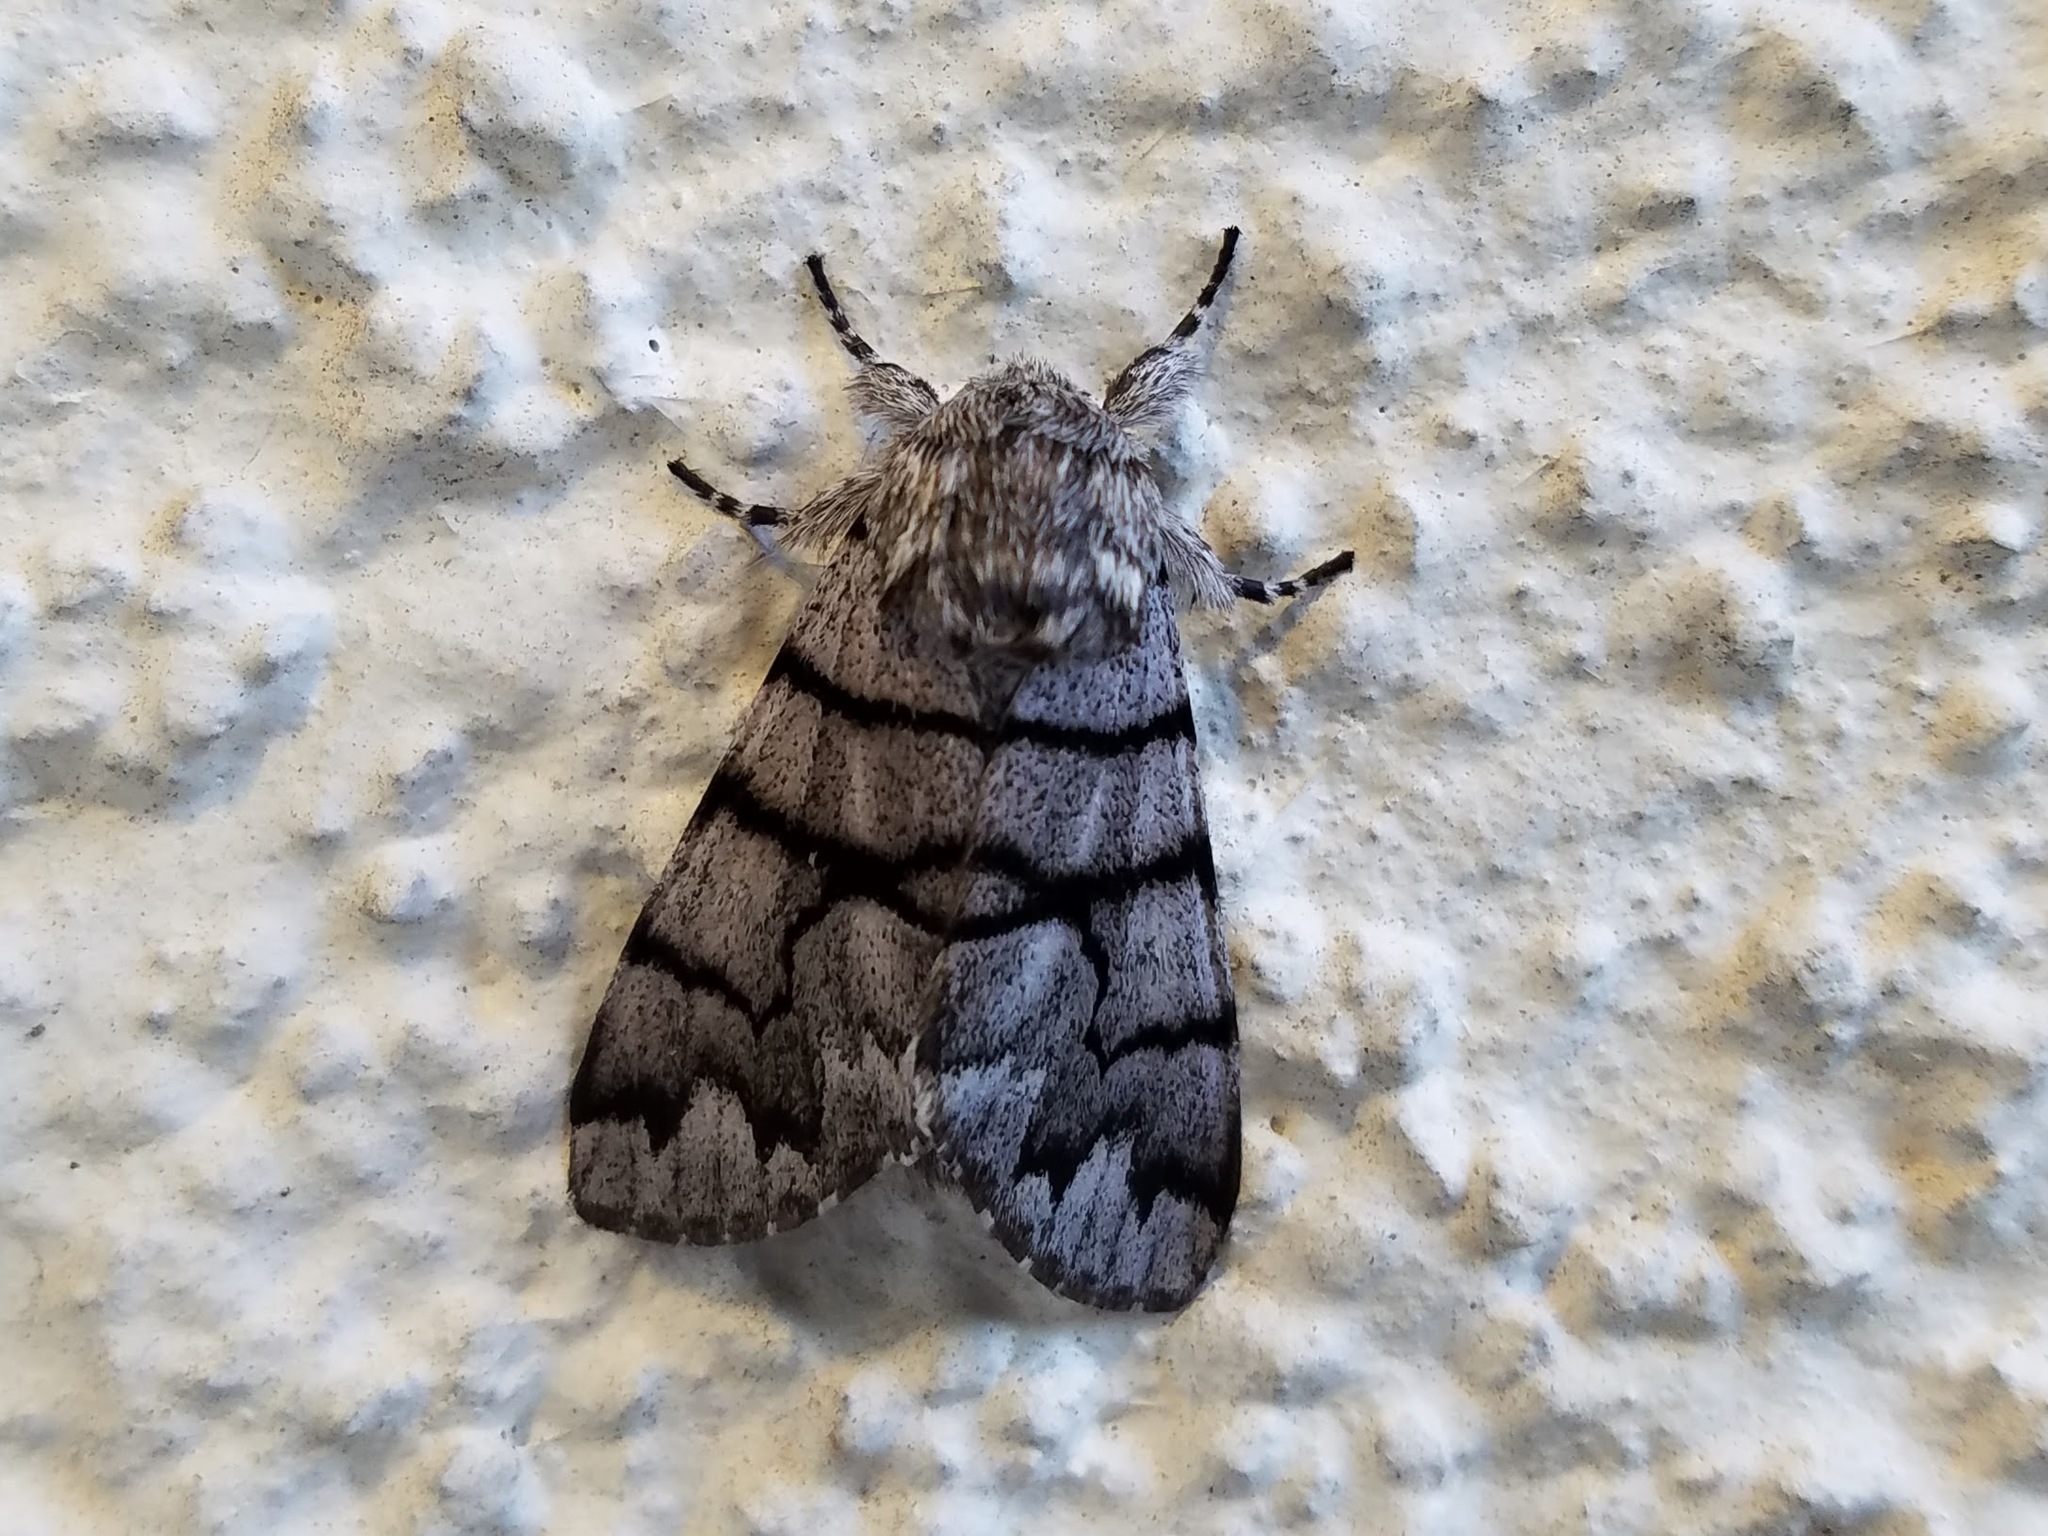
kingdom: Animalia
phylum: Arthropoda
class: Insecta
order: Lepidoptera
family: Noctuidae
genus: Panthea
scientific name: Panthea furcilla
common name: Eastern panthea moth
